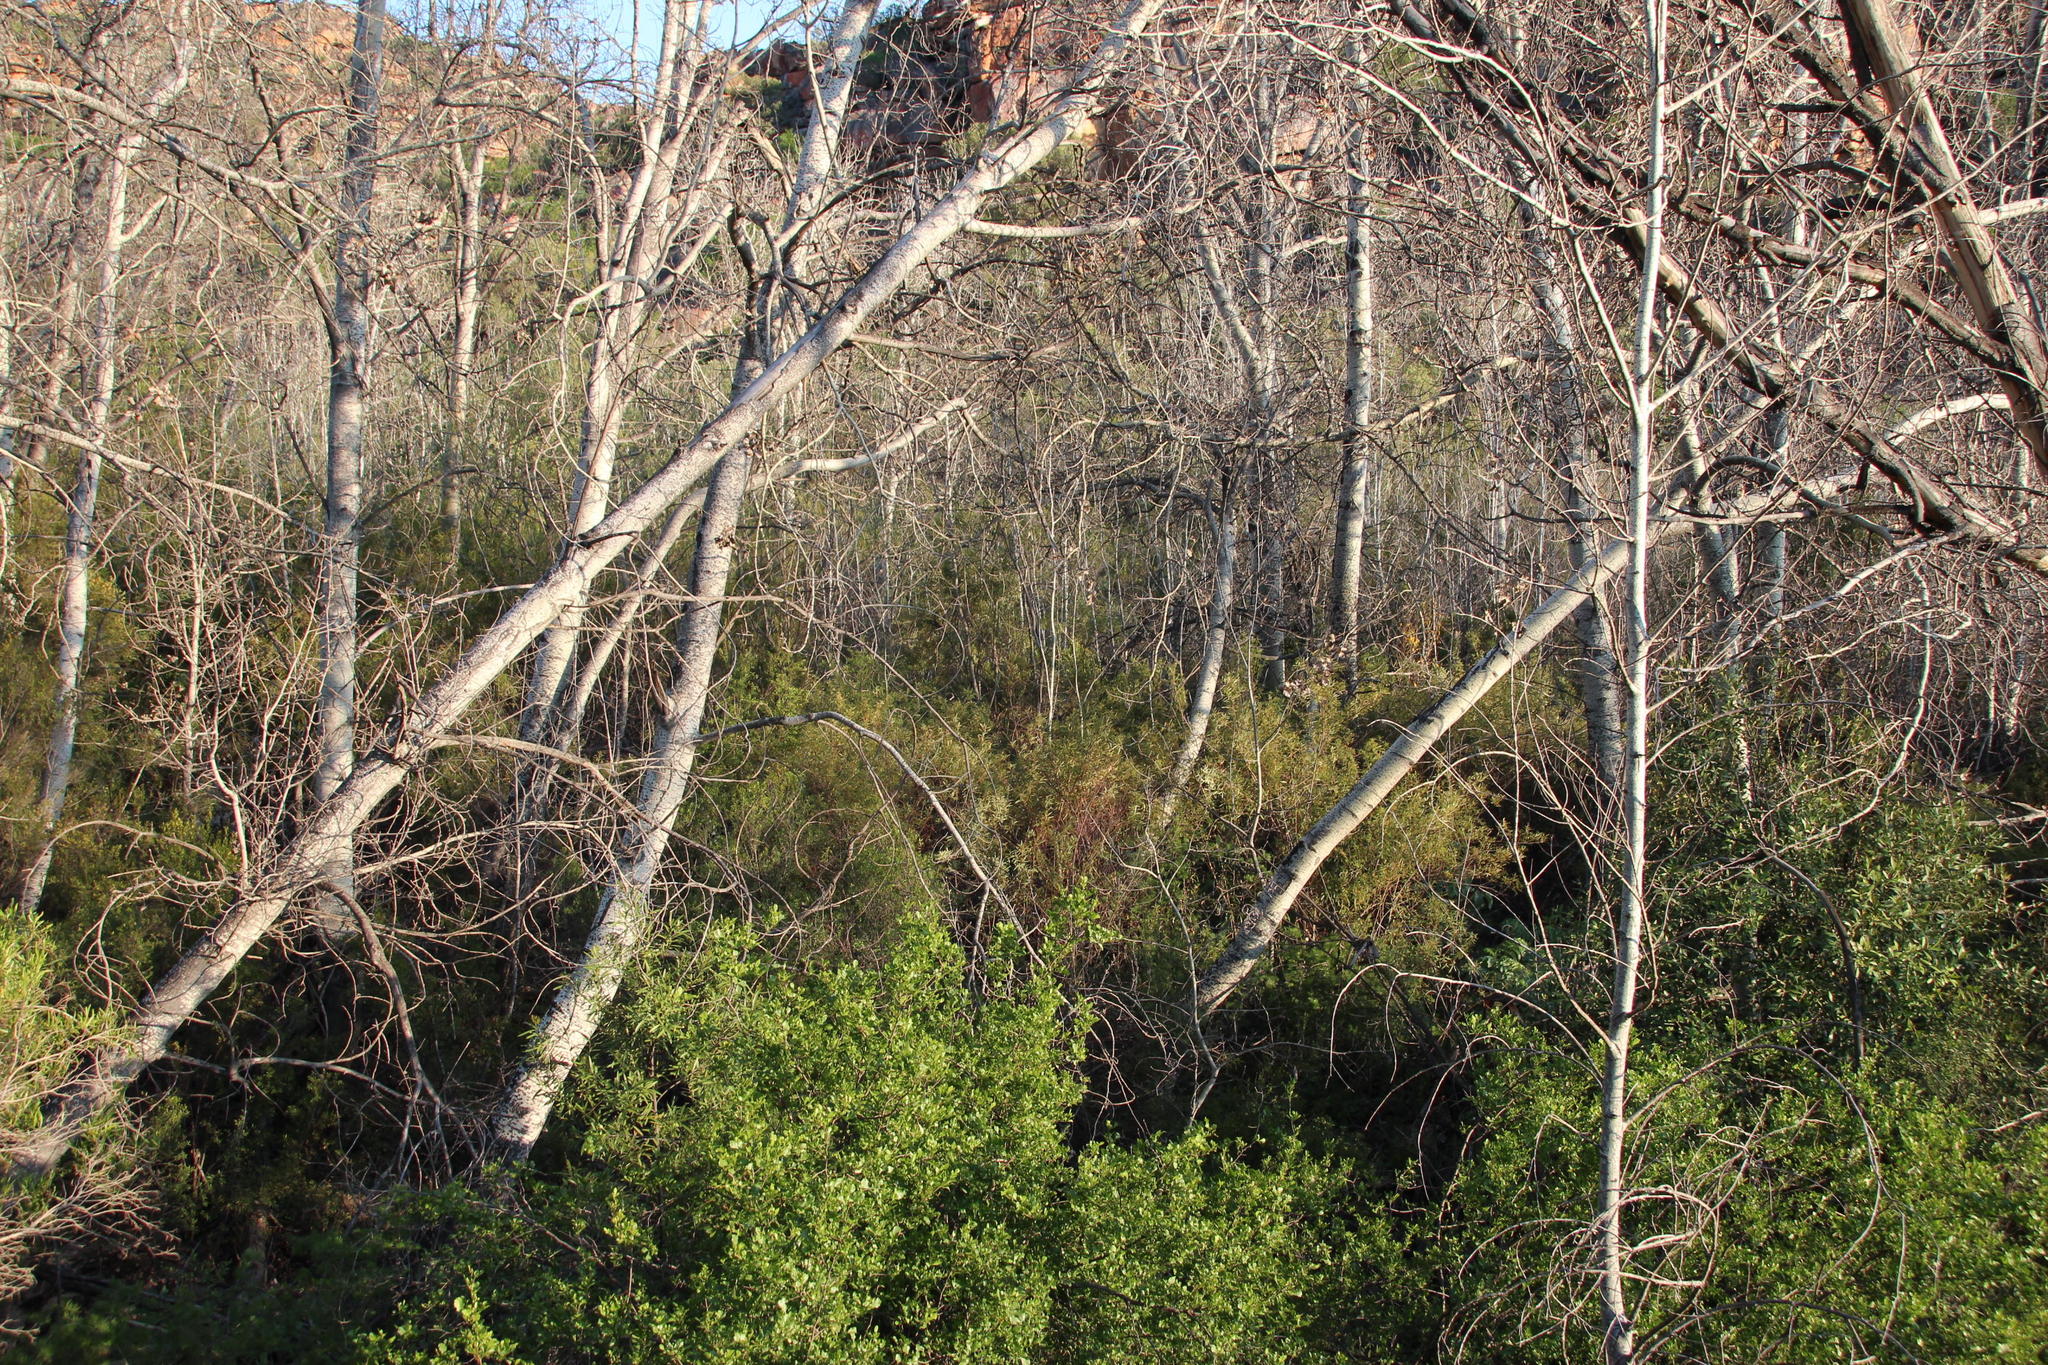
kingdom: Plantae
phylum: Tracheophyta
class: Magnoliopsida
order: Myrtales
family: Myrtaceae
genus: Callistemon
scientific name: Callistemon lanceolatus
